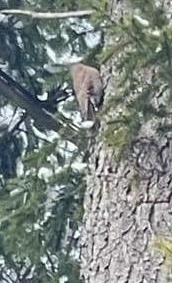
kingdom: Animalia
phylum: Chordata
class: Aves
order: Piciformes
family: Picidae
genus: Colaptes
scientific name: Colaptes auratus
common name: Northern flicker
